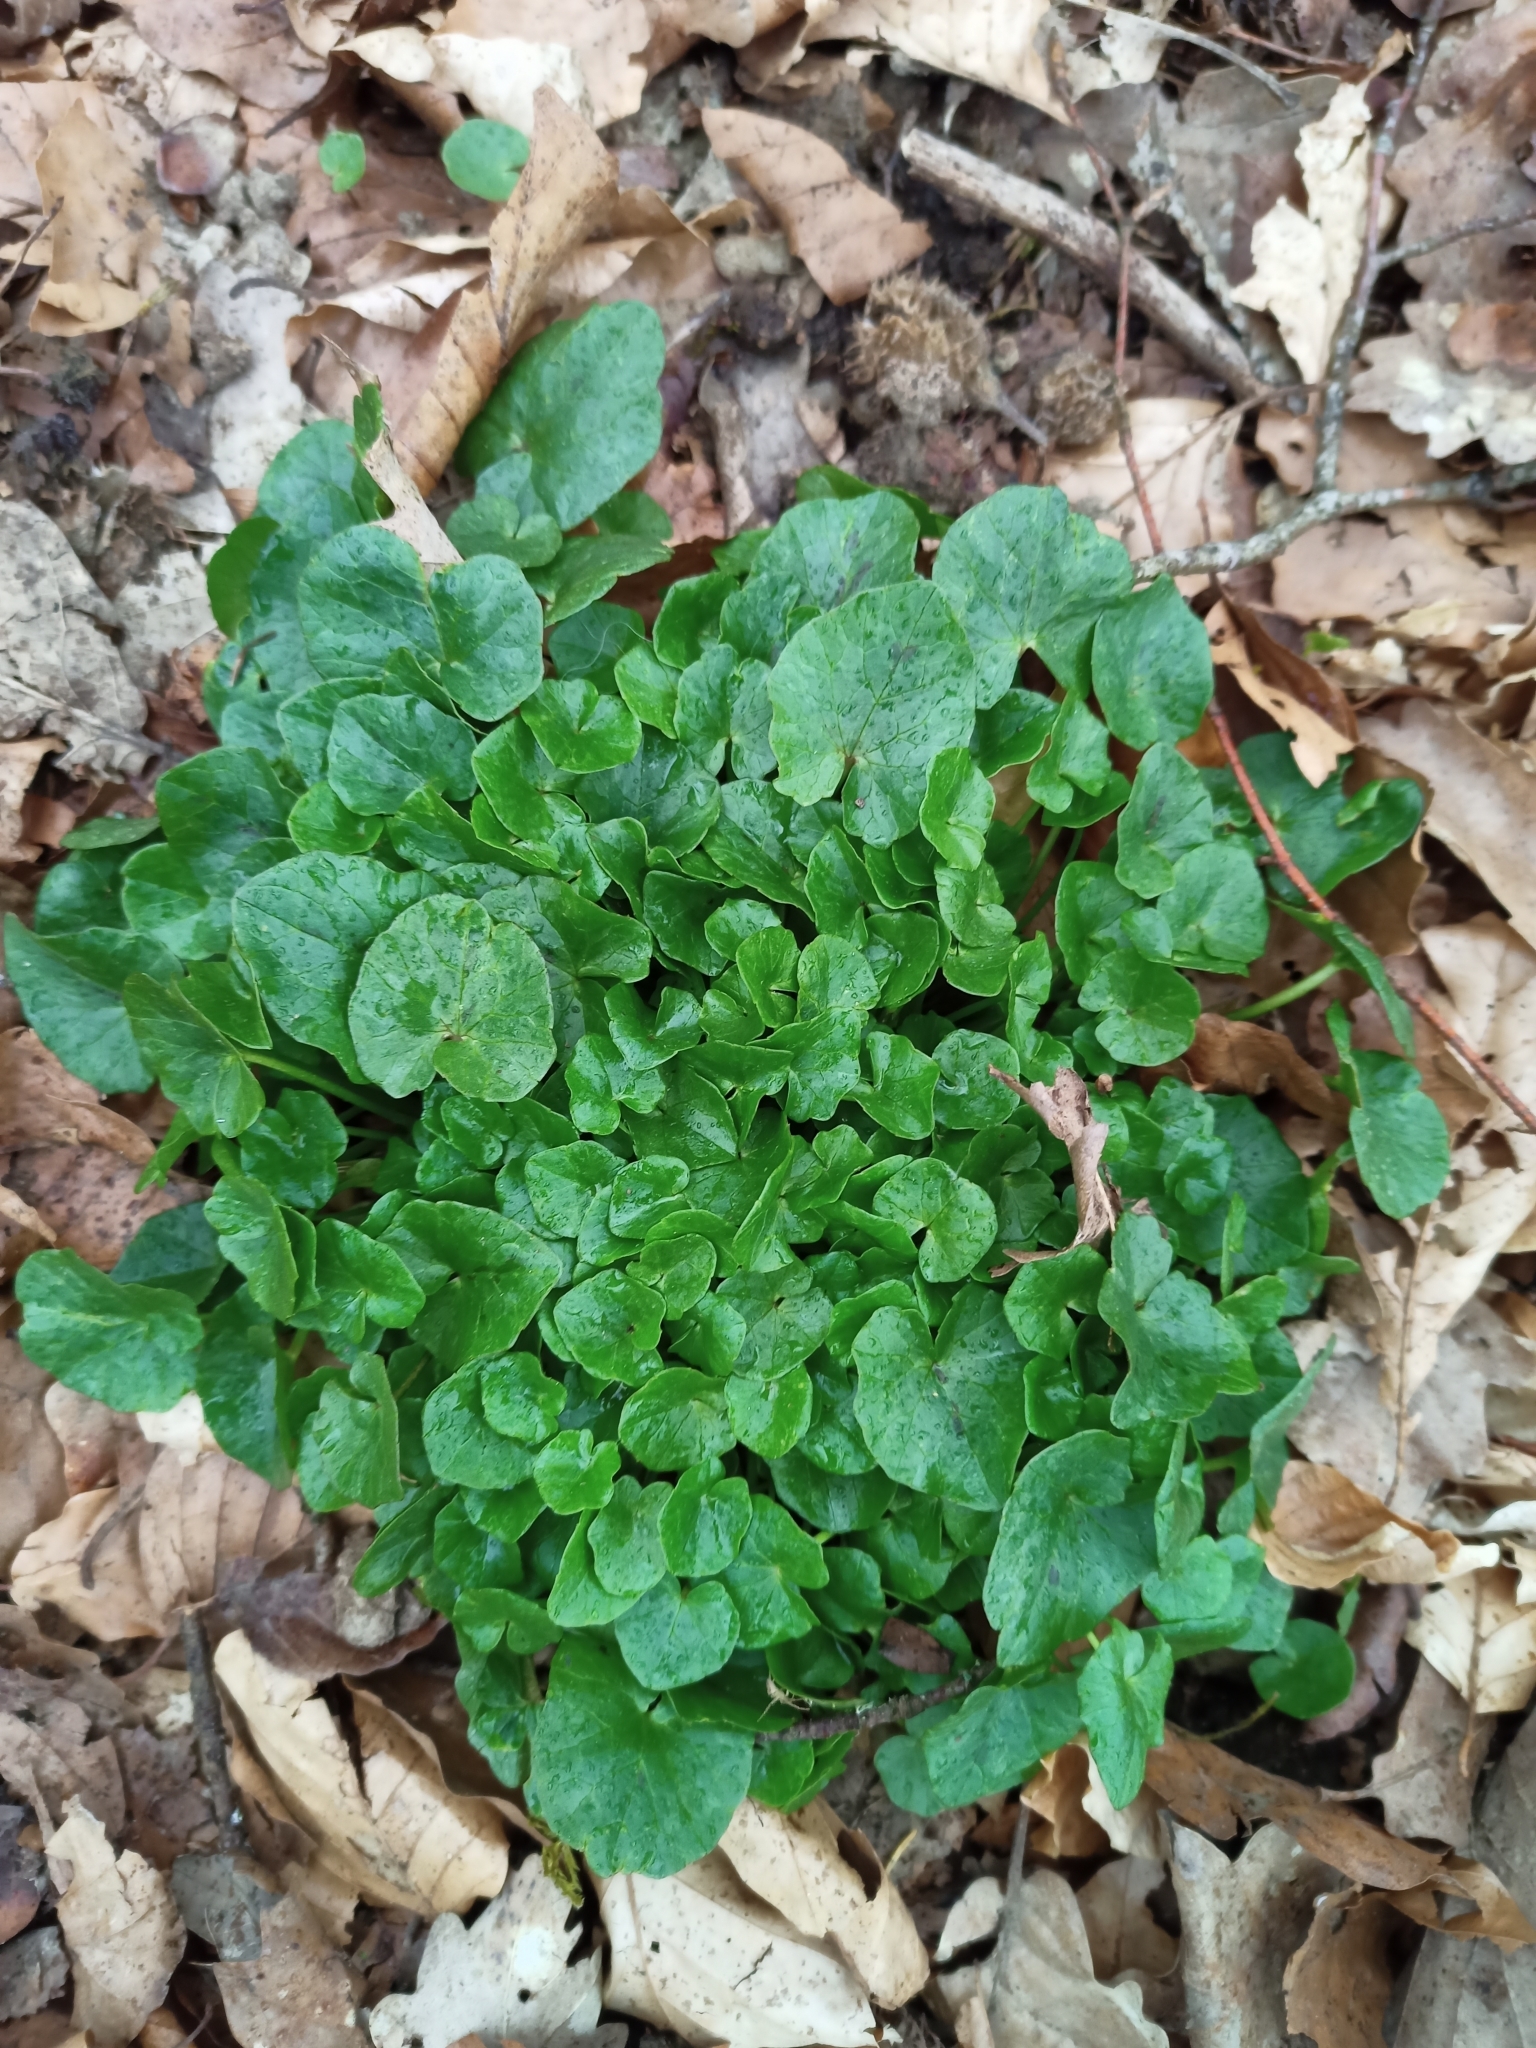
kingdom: Plantae
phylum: Tracheophyta
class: Magnoliopsida
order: Ranunculales
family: Ranunculaceae
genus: Ficaria
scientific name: Ficaria verna
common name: Lesser celandine
